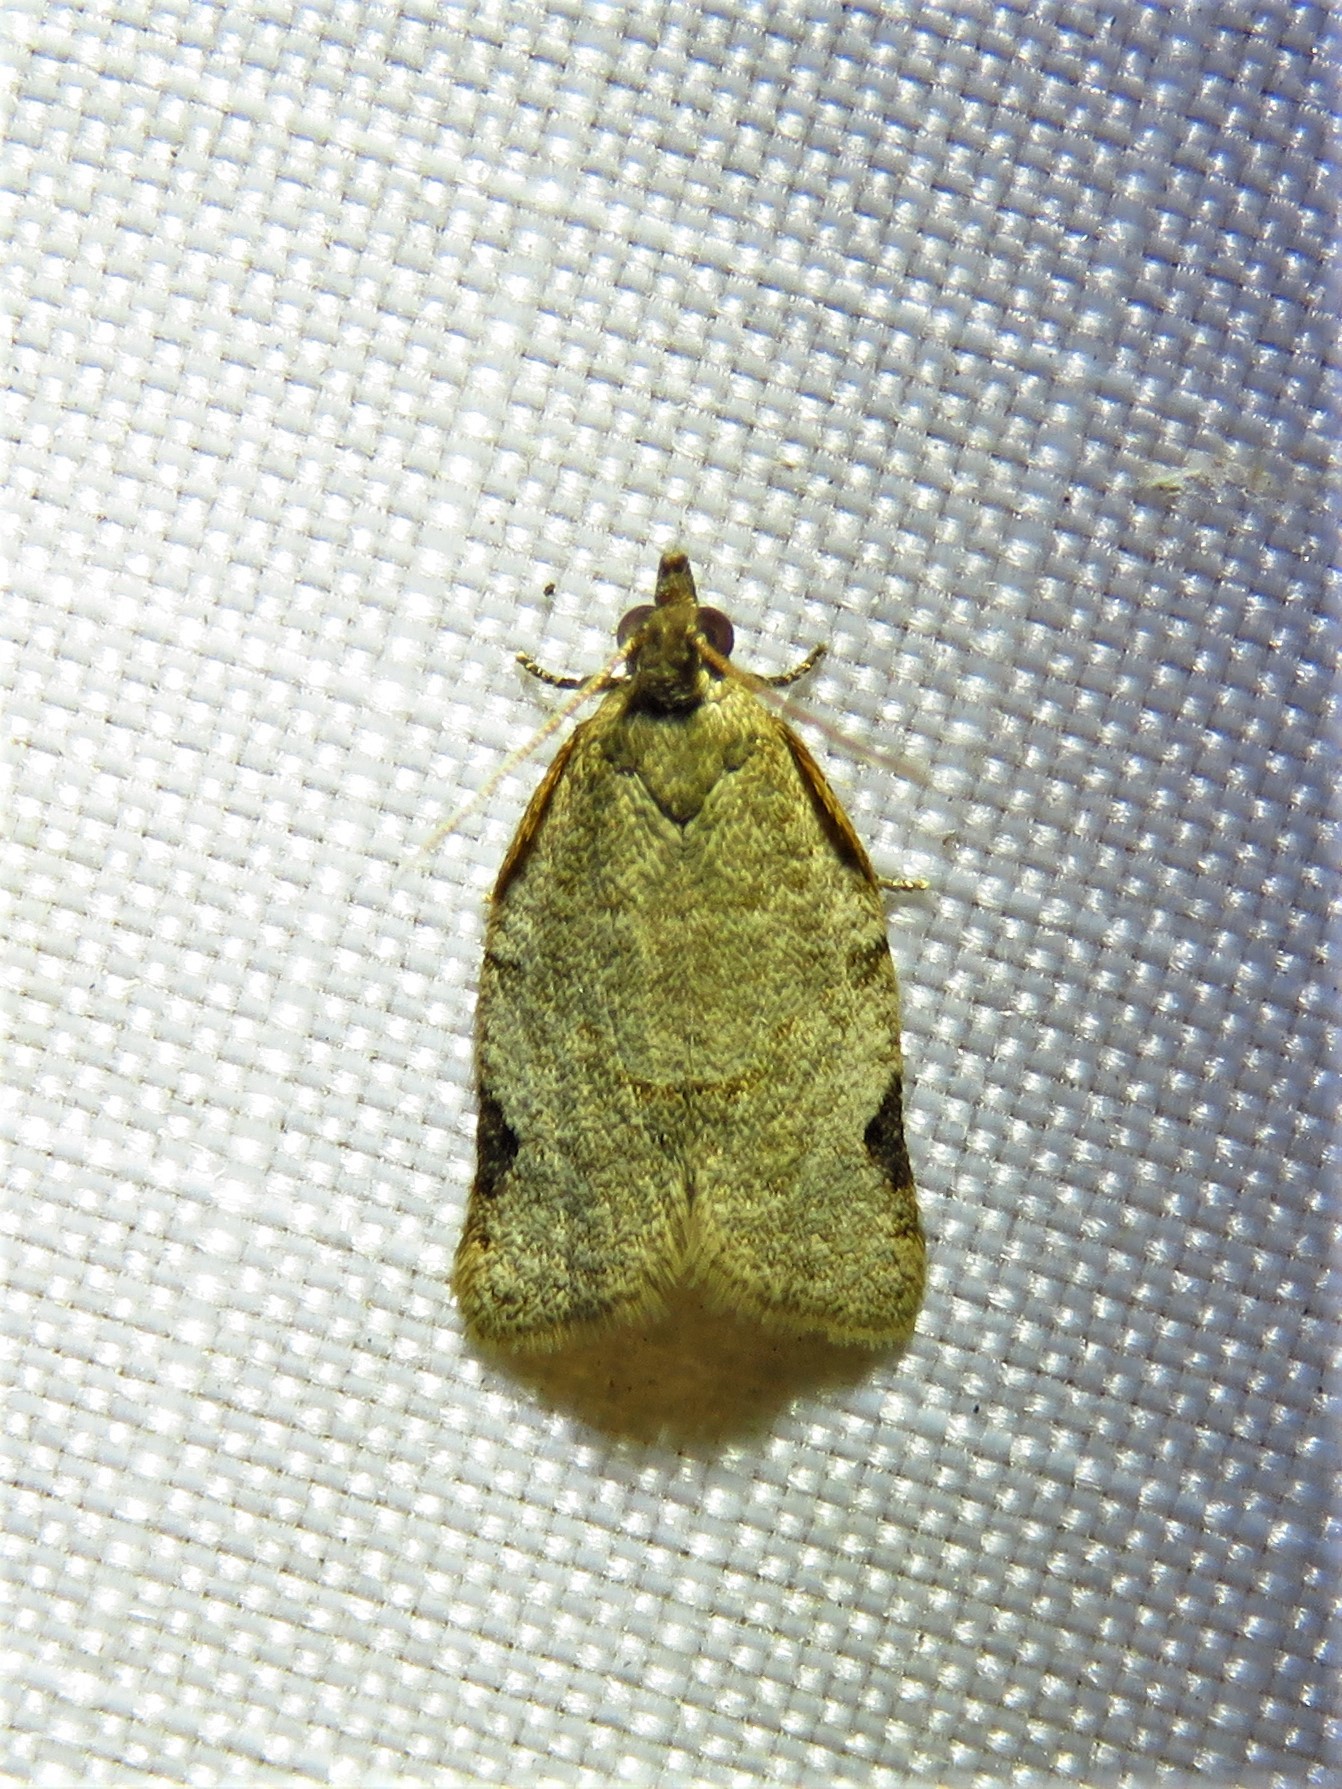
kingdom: Animalia
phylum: Arthropoda
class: Insecta
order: Lepidoptera
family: Tortricidae
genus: Clepsis
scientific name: Clepsis virescana
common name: Greenish apple moth
